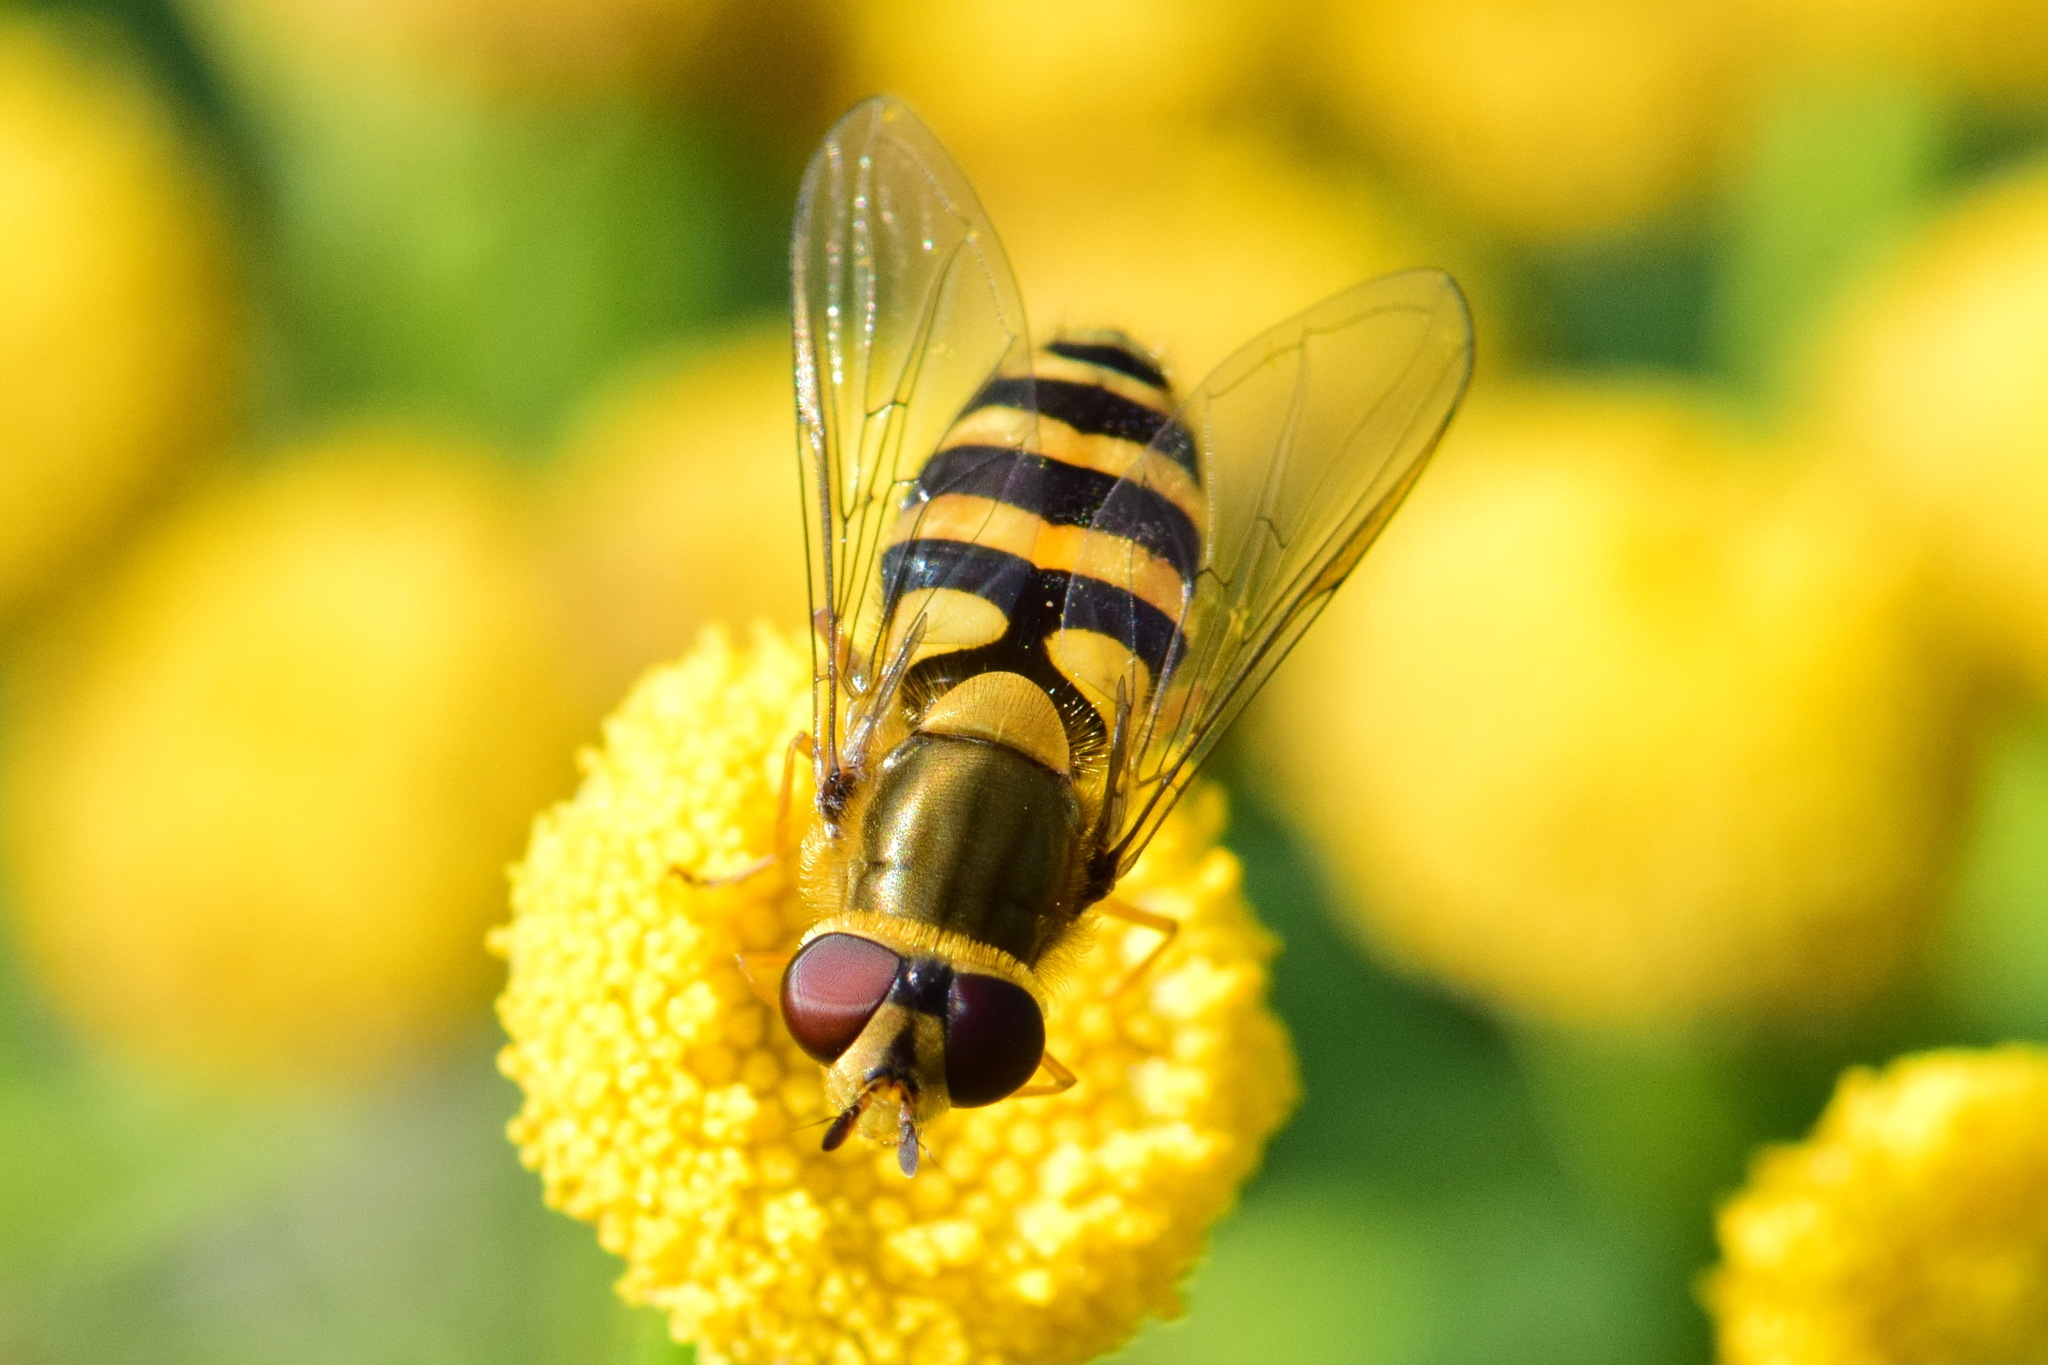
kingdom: Animalia
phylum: Arthropoda
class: Insecta
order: Diptera
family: Syrphidae
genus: Syrphus
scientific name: Syrphus
